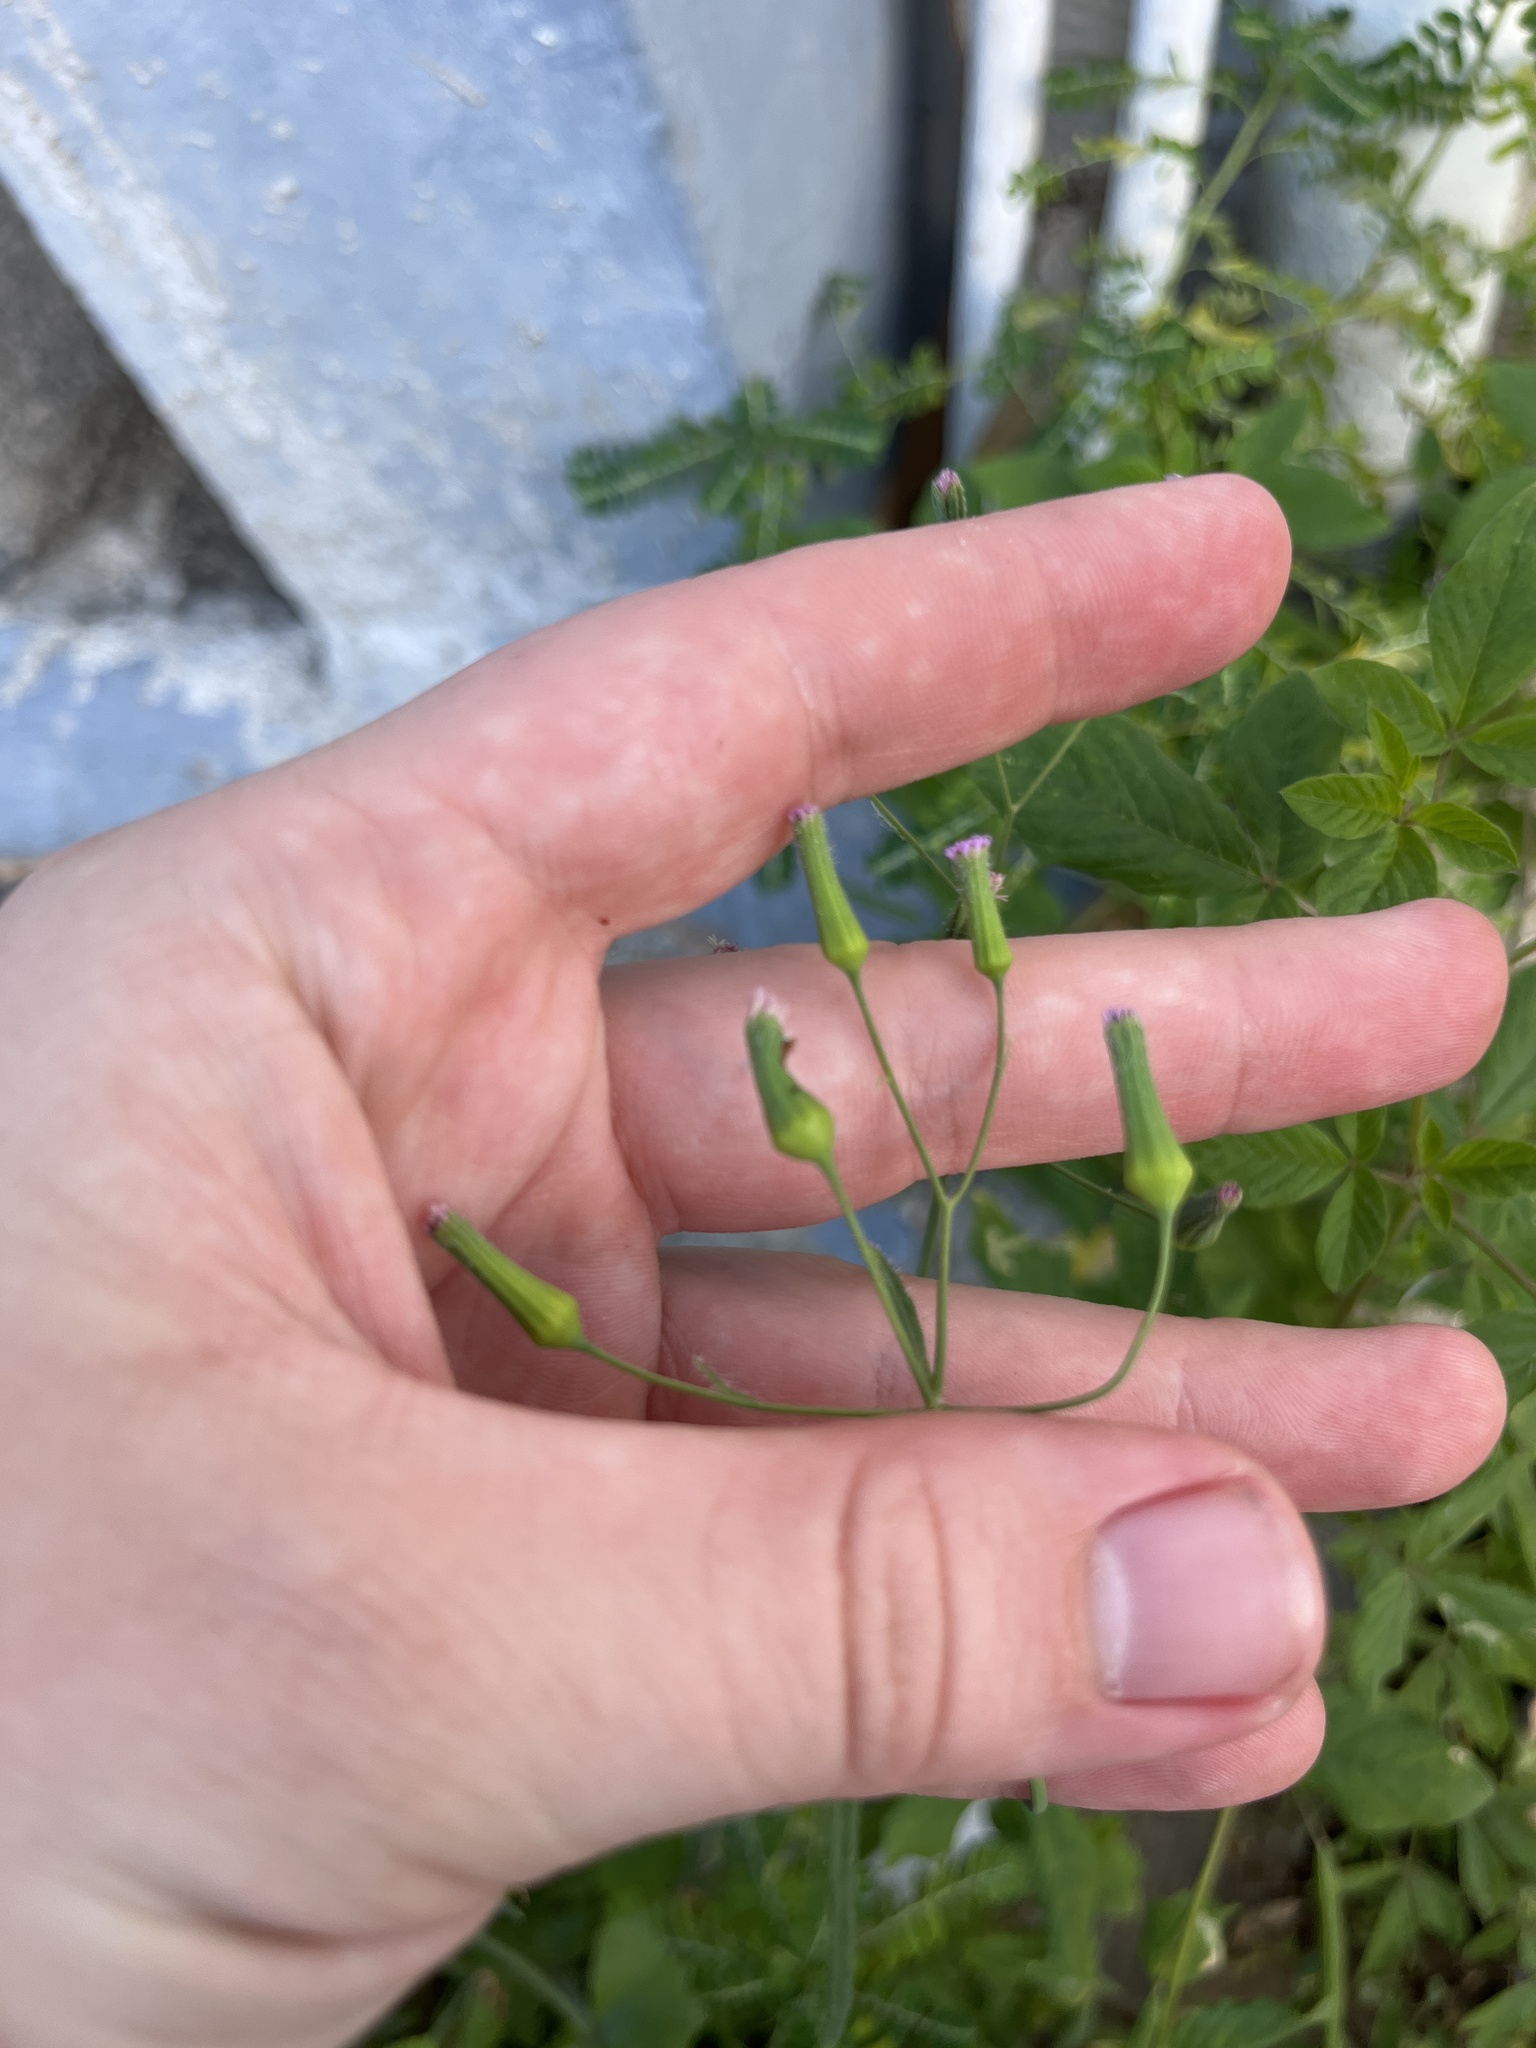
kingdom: Plantae
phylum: Tracheophyta
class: Magnoliopsida
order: Asterales
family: Asteraceae
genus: Emilia
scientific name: Emilia sonchifolia
